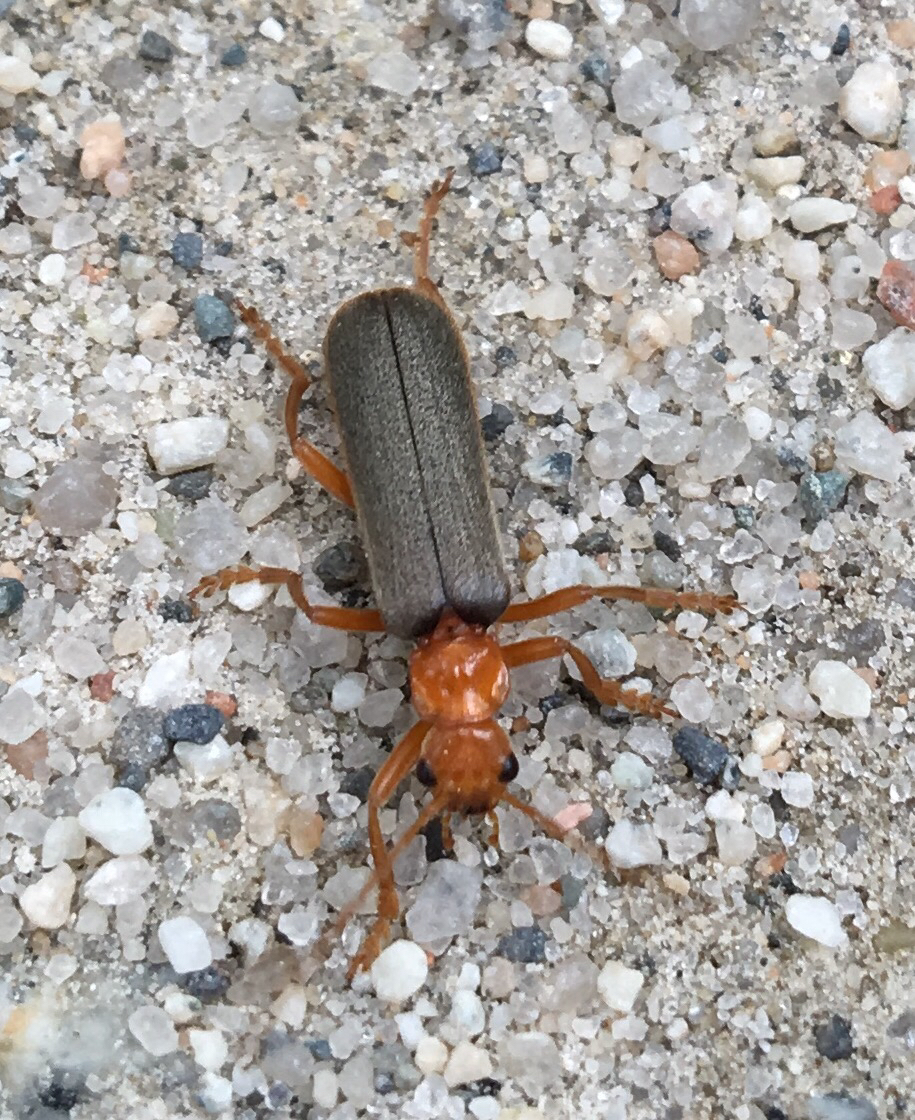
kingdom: Animalia
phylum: Arthropoda
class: Insecta
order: Coleoptera
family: Cantharidae
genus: Pacificanthia
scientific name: Pacificanthia rotundicollis
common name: Brown leatherwing beetle
